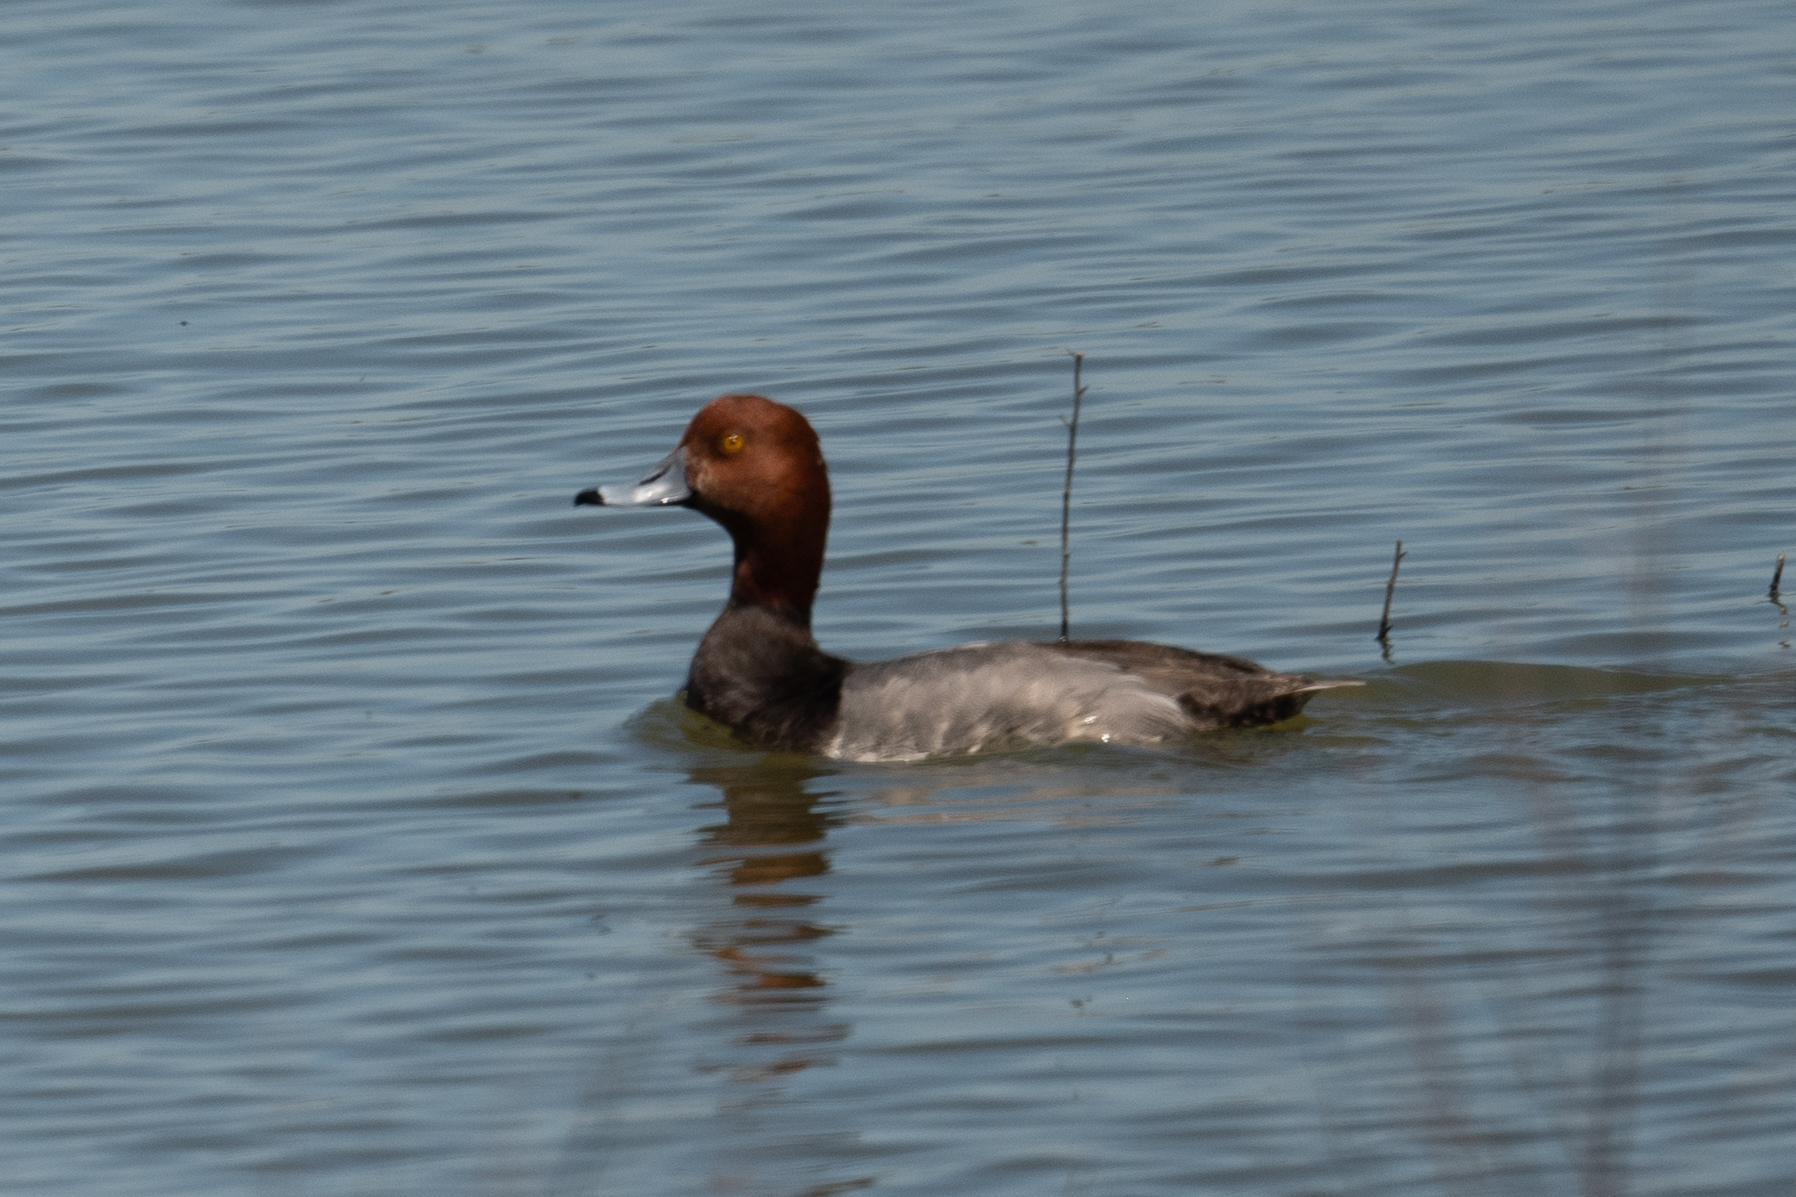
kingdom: Animalia
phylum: Chordata
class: Aves
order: Anseriformes
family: Anatidae
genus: Aythya
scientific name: Aythya americana
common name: Redhead
